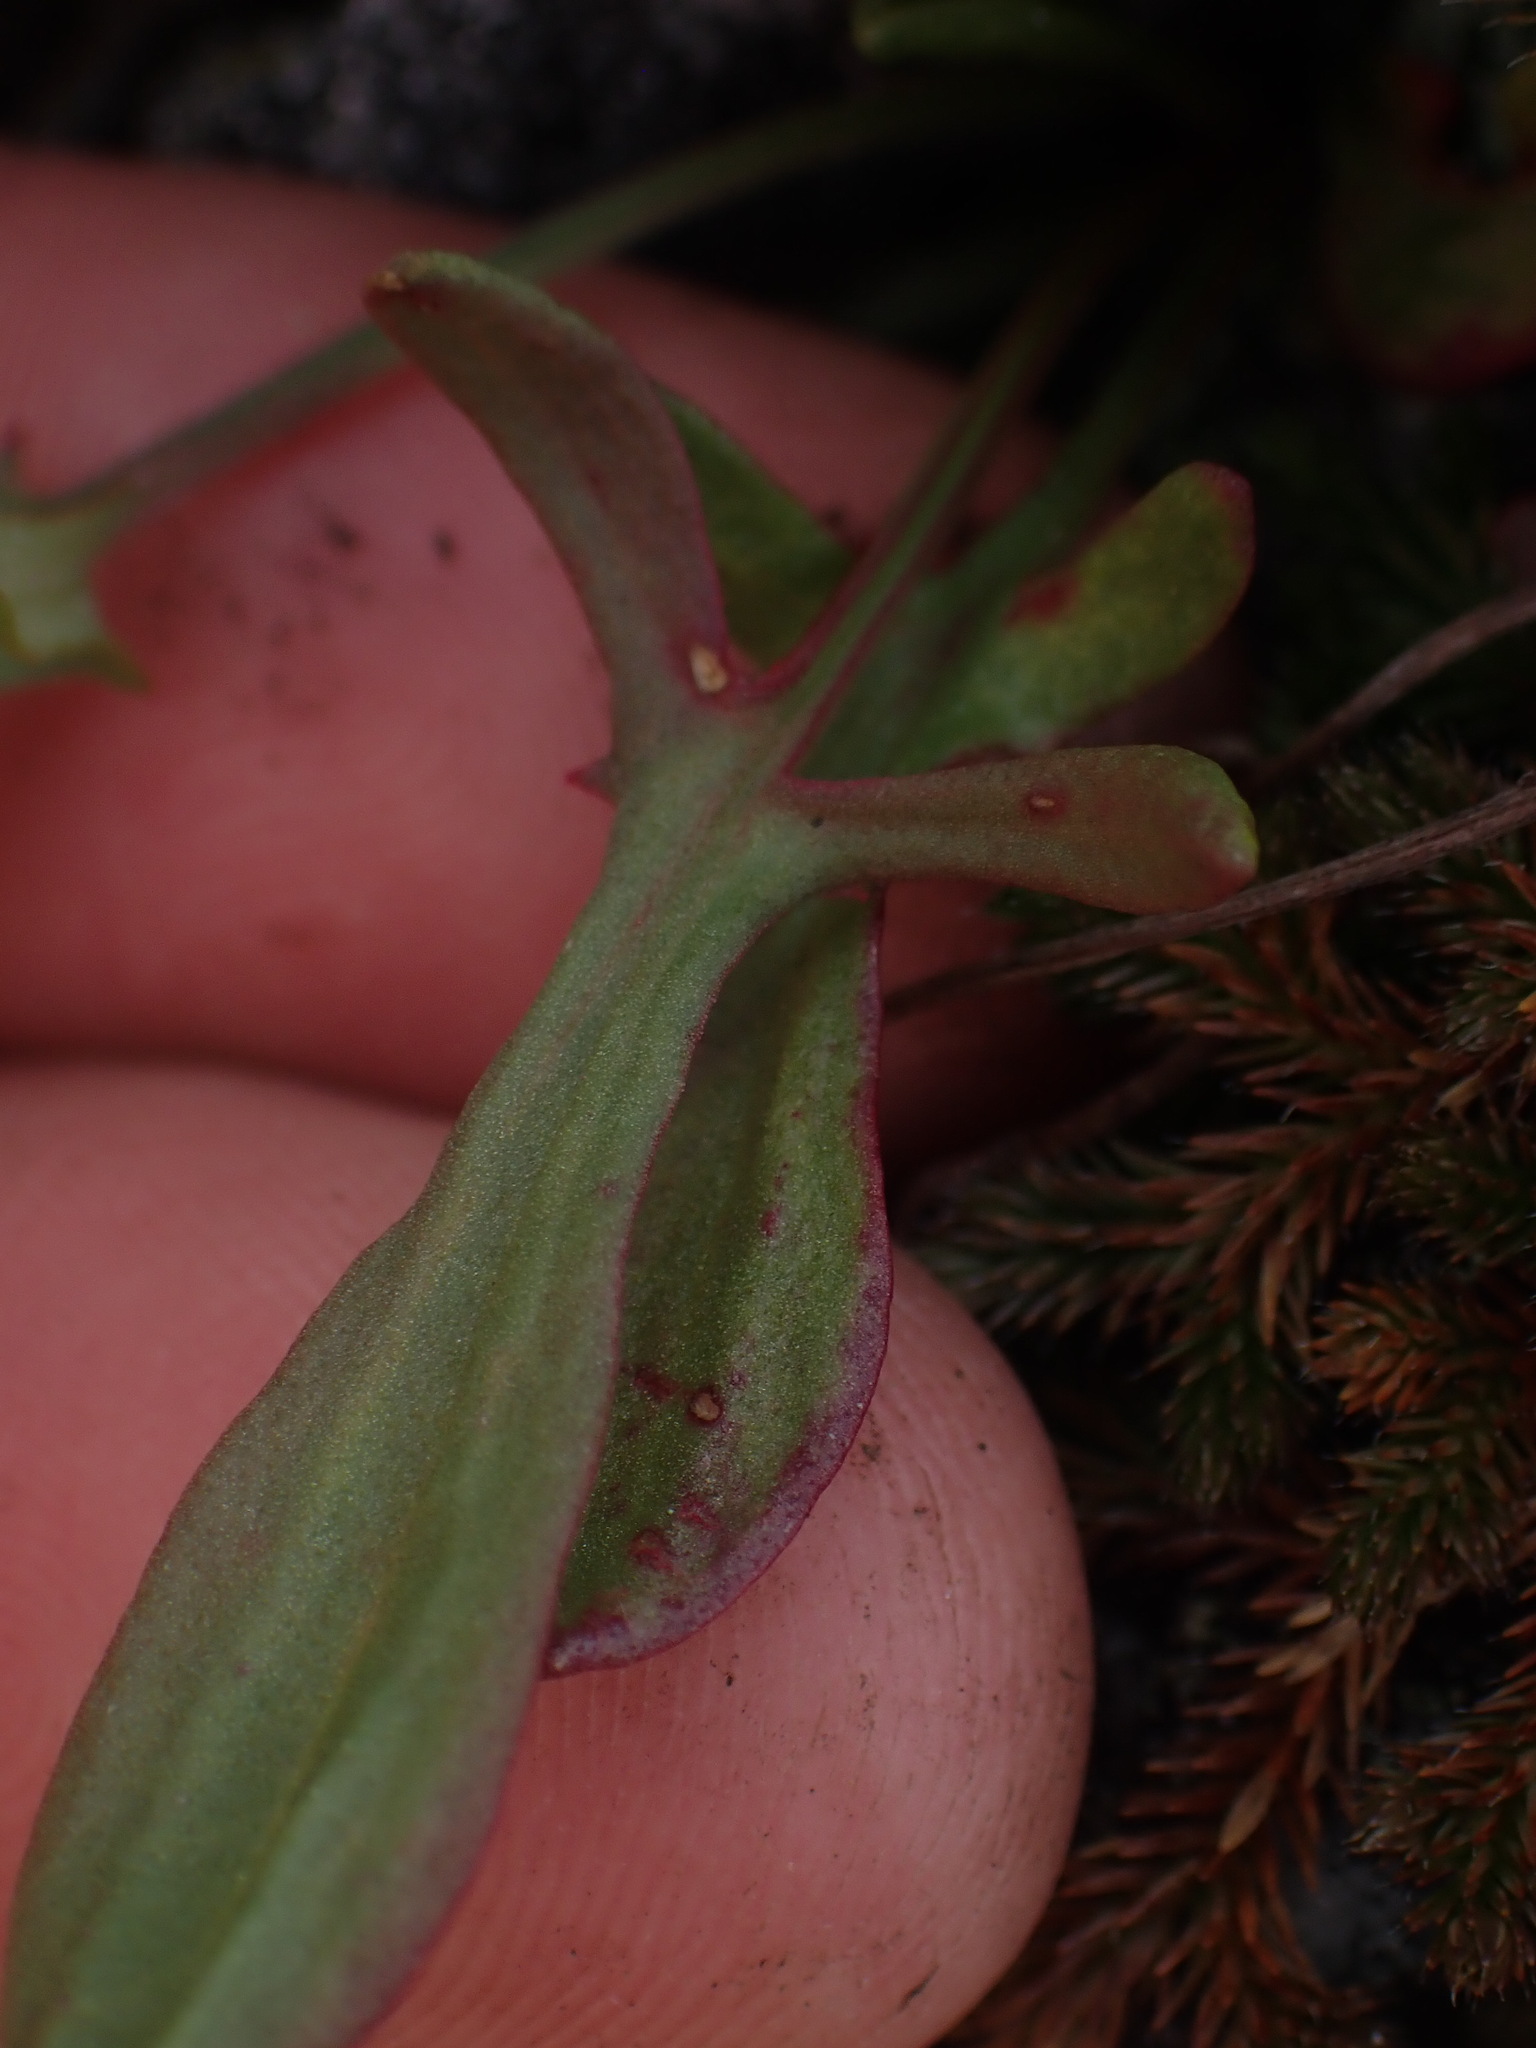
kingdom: Plantae
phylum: Tracheophyta
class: Magnoliopsida
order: Caryophyllales
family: Polygonaceae
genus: Rumex
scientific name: Rumex acetosella
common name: Common sheep sorrel
